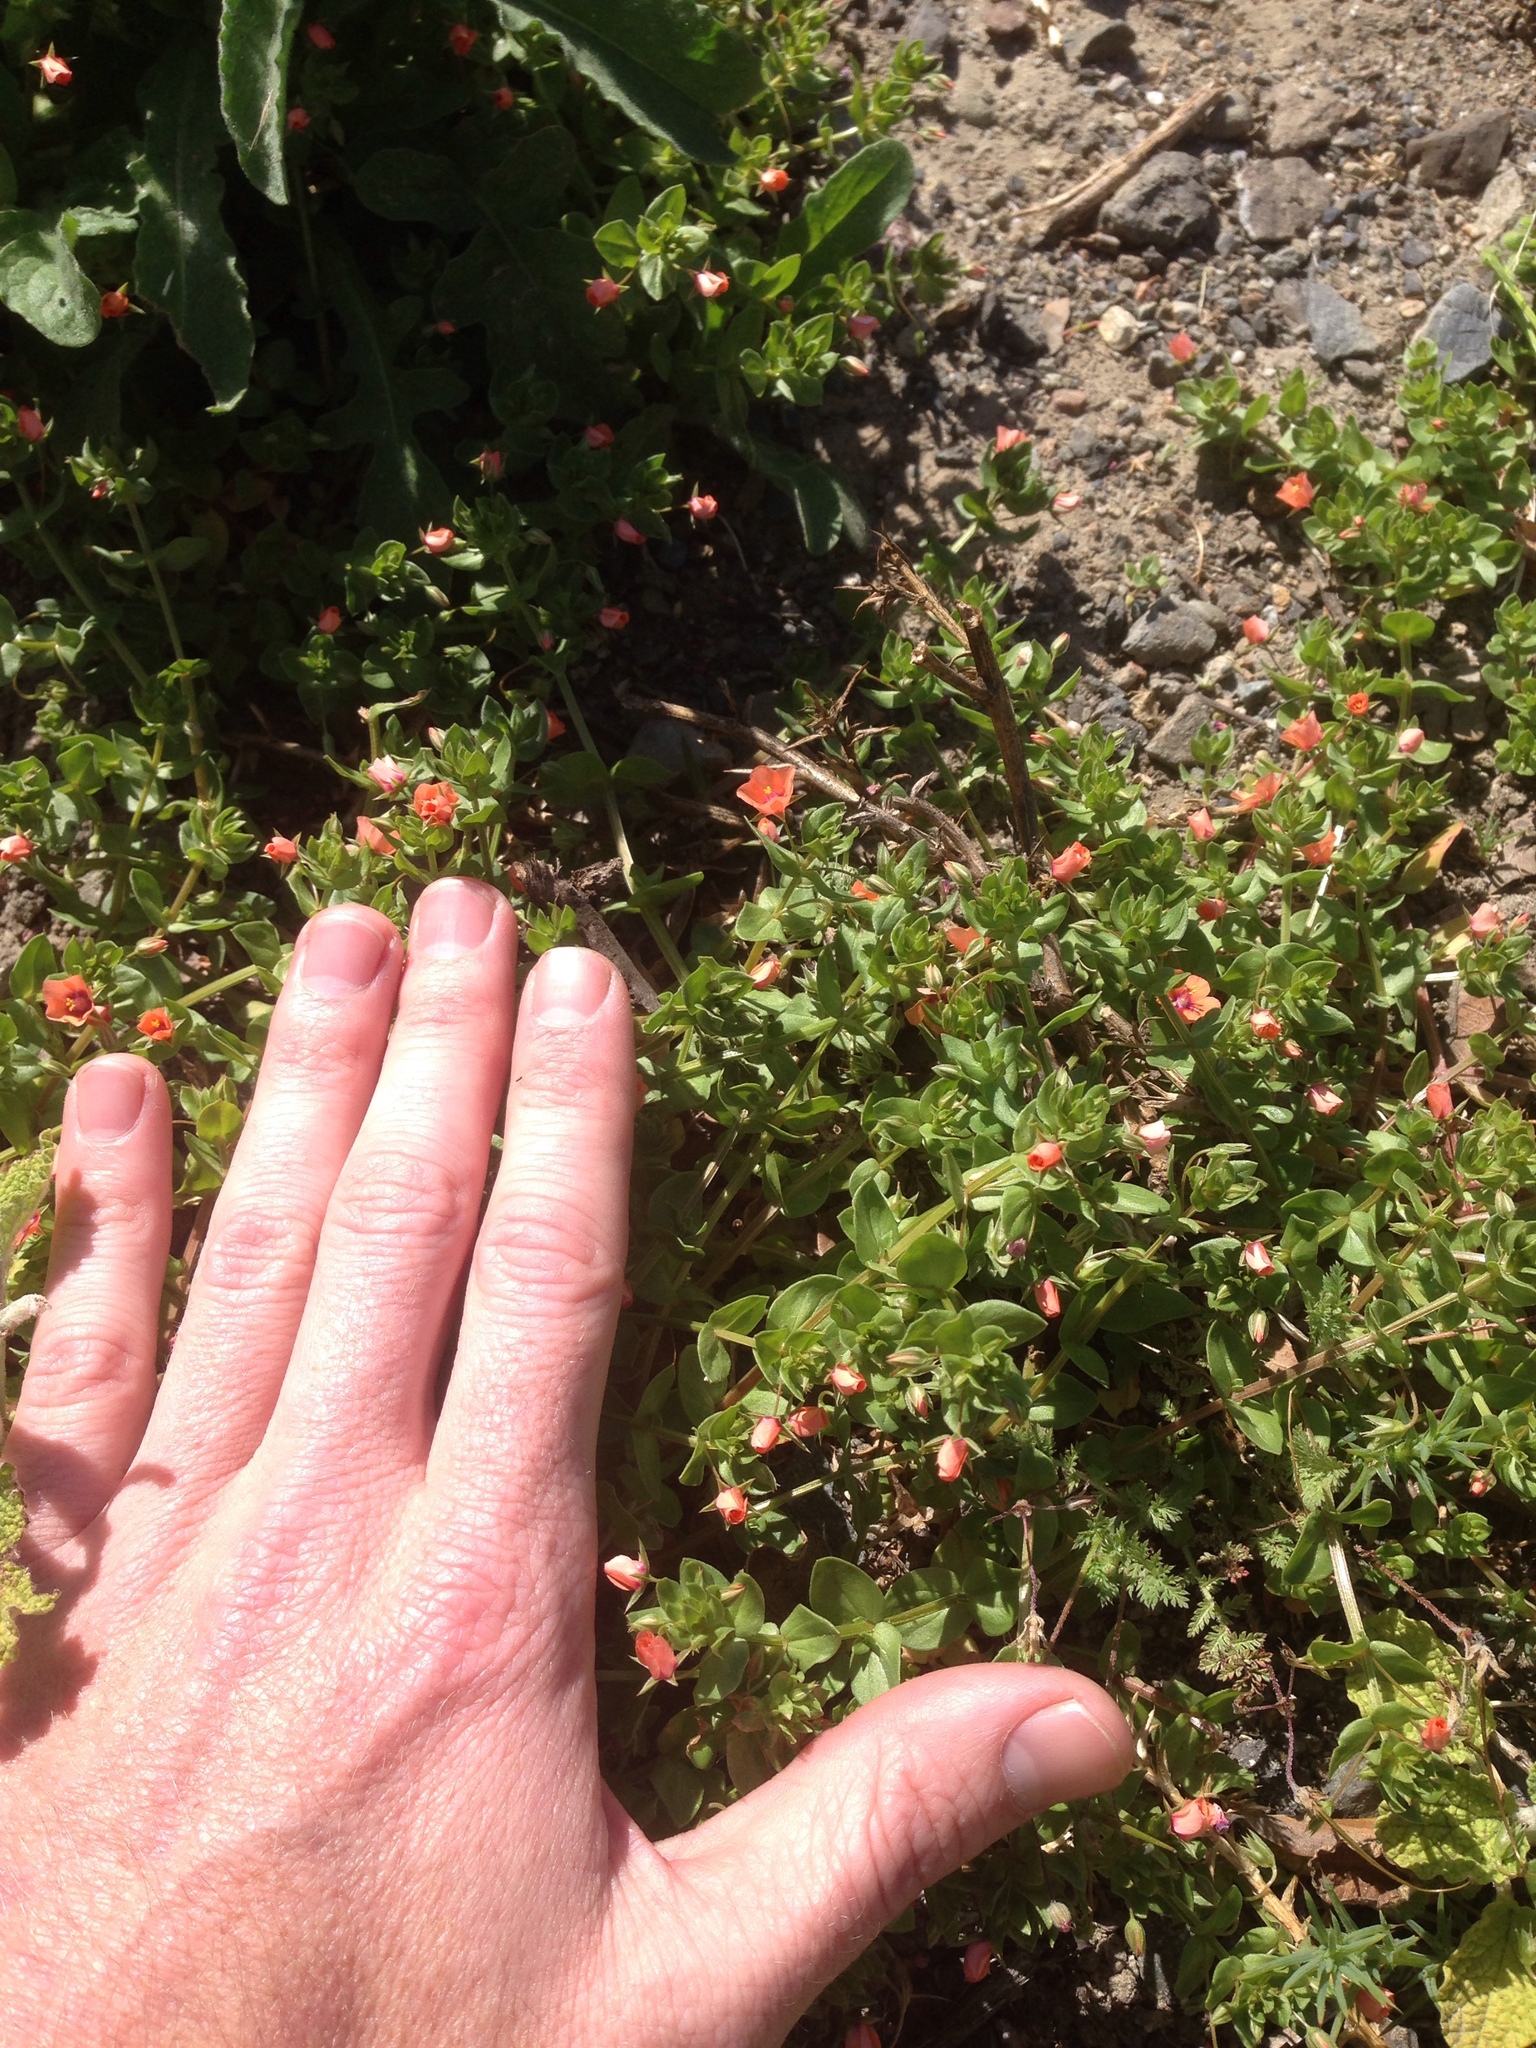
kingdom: Plantae
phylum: Tracheophyta
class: Magnoliopsida
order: Ericales
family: Primulaceae
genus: Lysimachia
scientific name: Lysimachia arvensis
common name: Scarlet pimpernel
